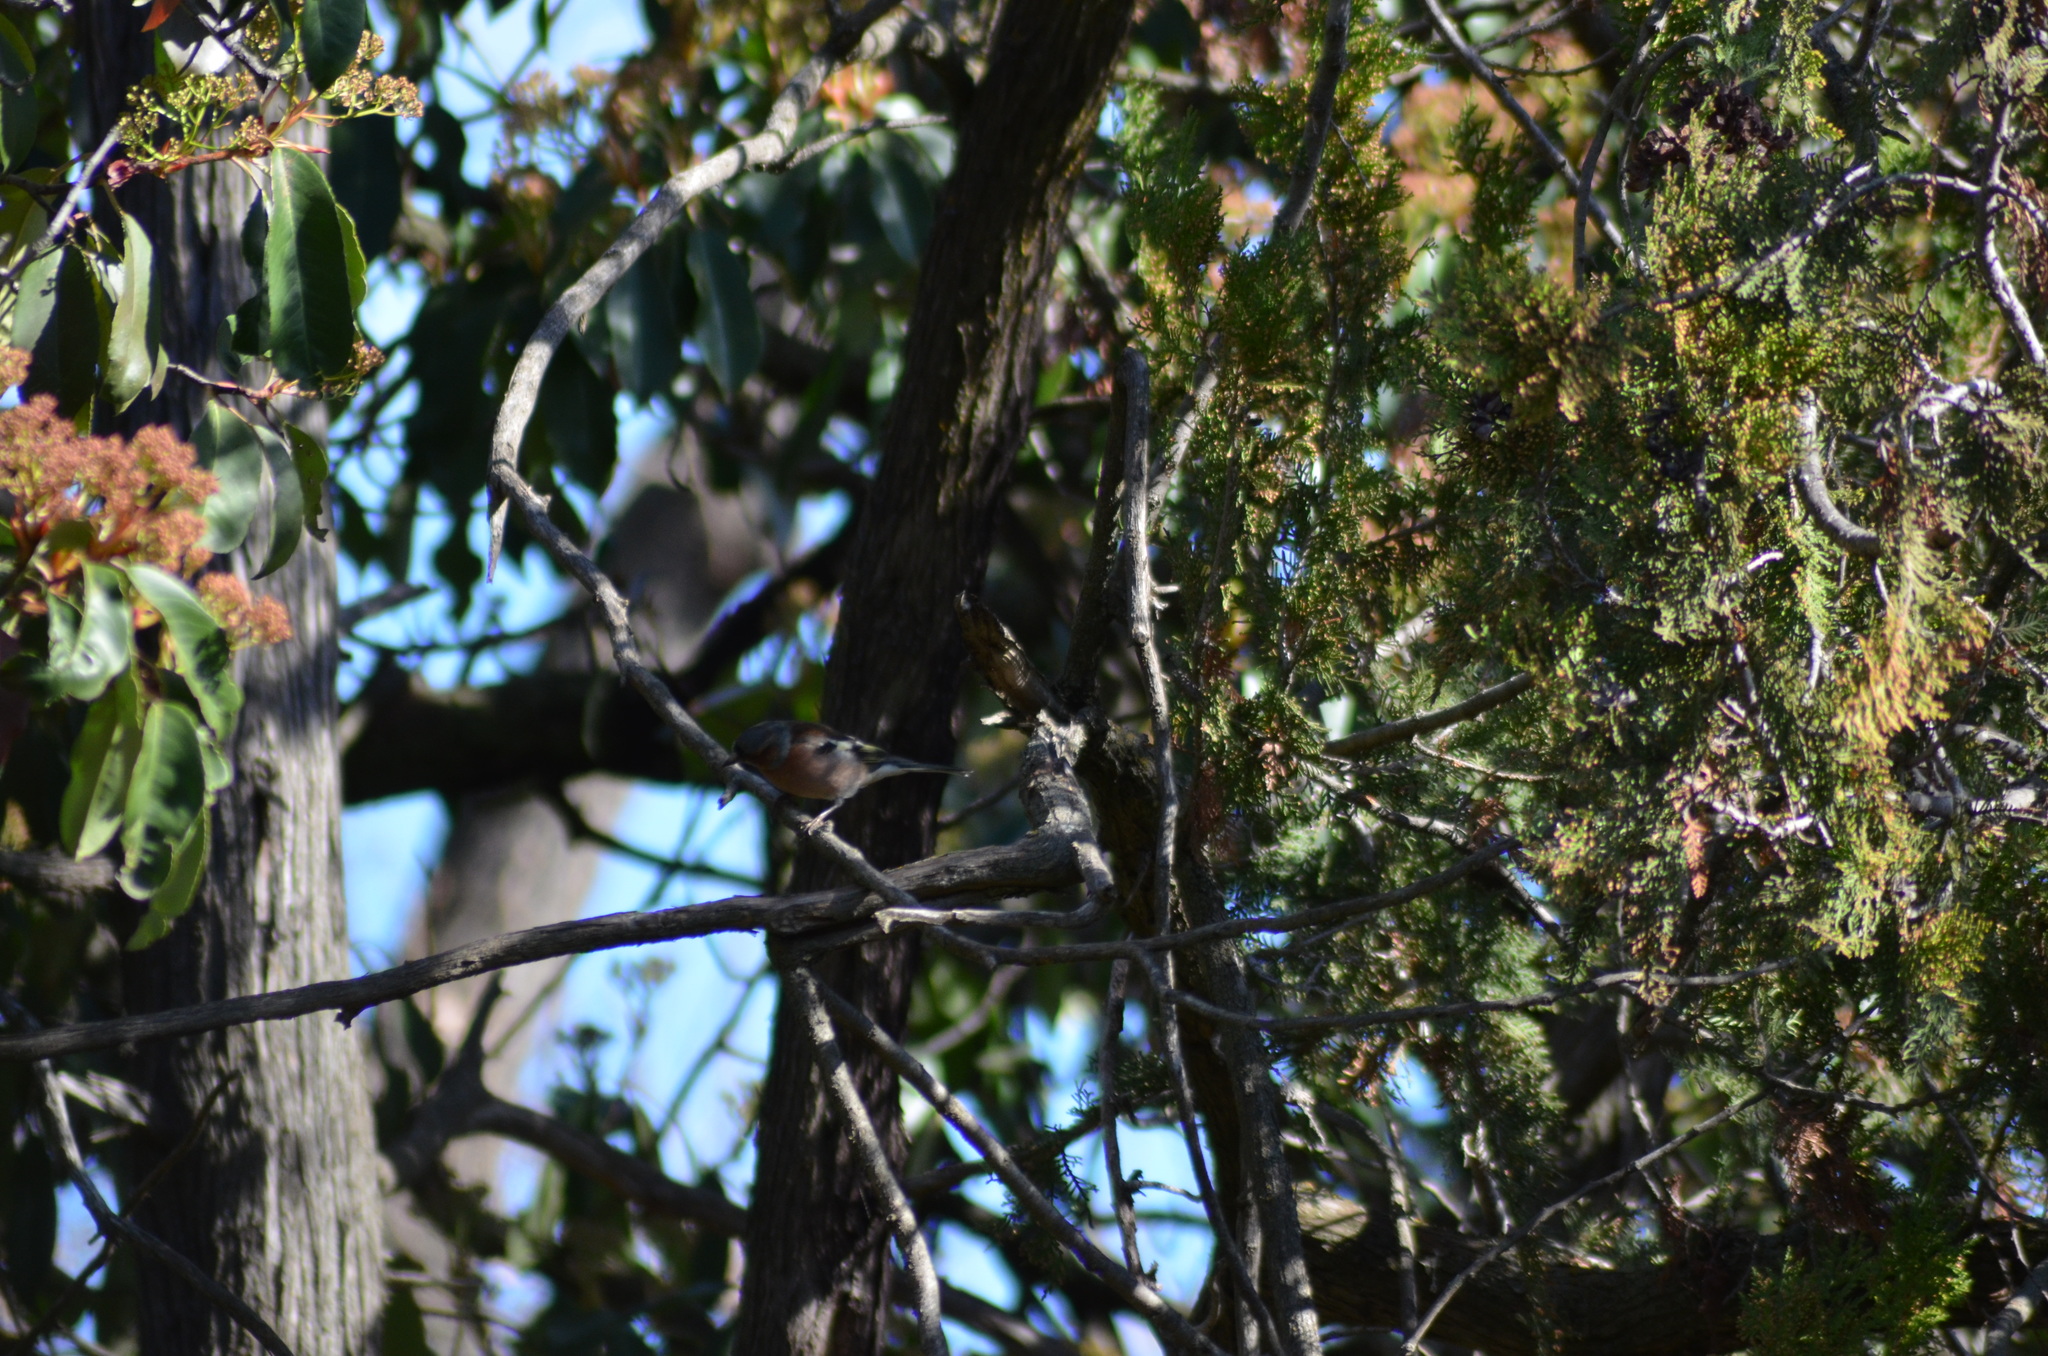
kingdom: Animalia
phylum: Chordata
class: Aves
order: Passeriformes
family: Fringillidae
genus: Fringilla
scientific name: Fringilla coelebs
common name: Common chaffinch
